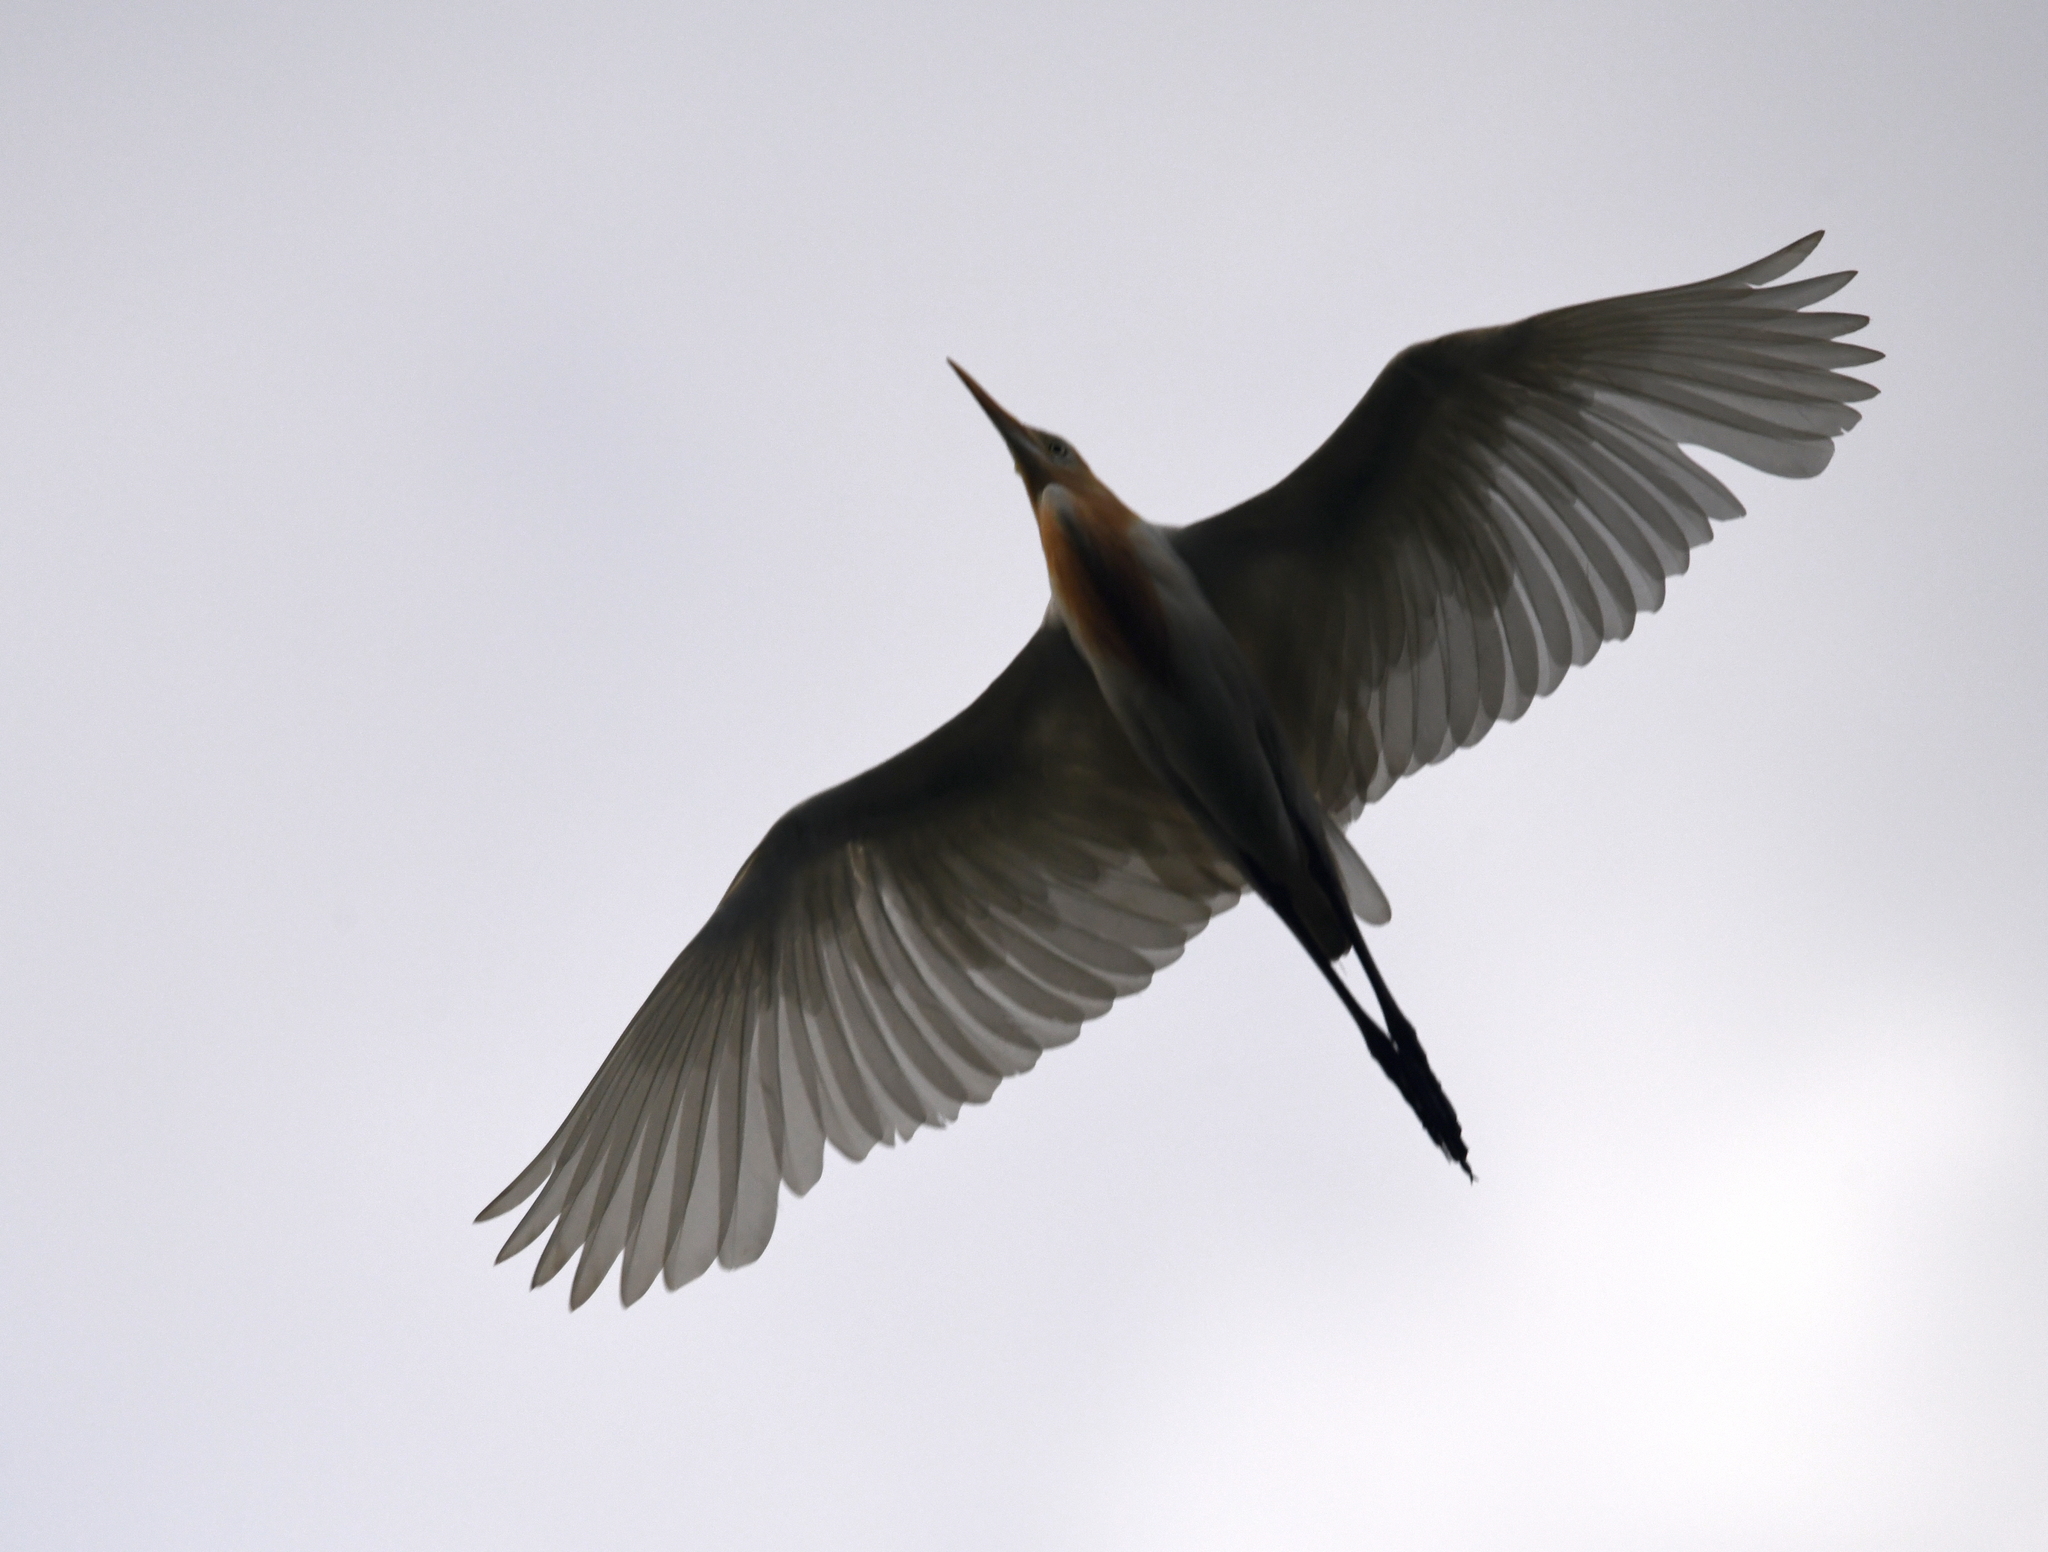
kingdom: Animalia
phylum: Chordata
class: Aves
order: Pelecaniformes
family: Ardeidae
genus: Bubulcus
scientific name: Bubulcus coromandus
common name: Eastern cattle egret
